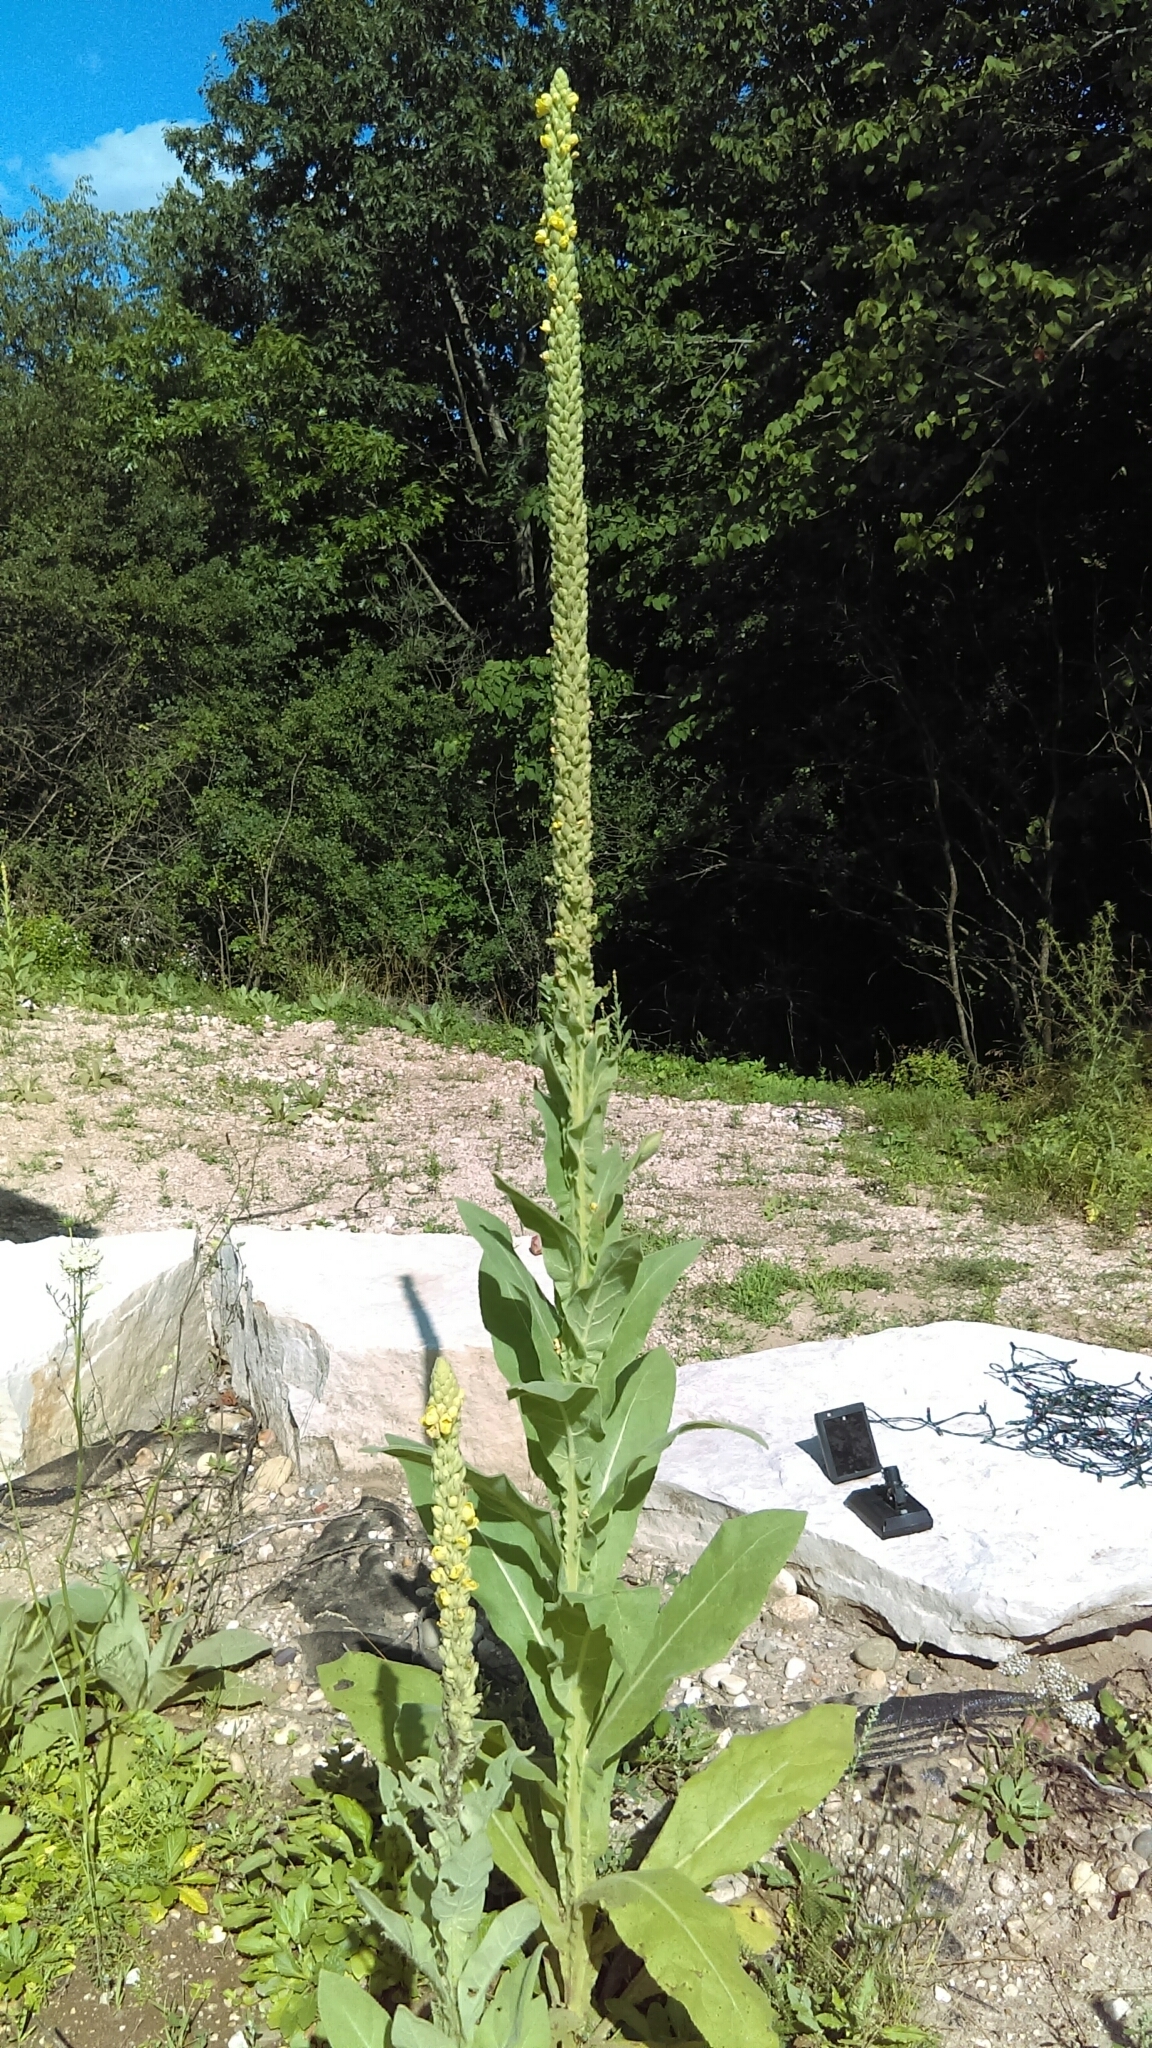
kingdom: Plantae
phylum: Tracheophyta
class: Magnoliopsida
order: Lamiales
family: Scrophulariaceae
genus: Verbascum
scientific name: Verbascum thapsus
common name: Common mullein
